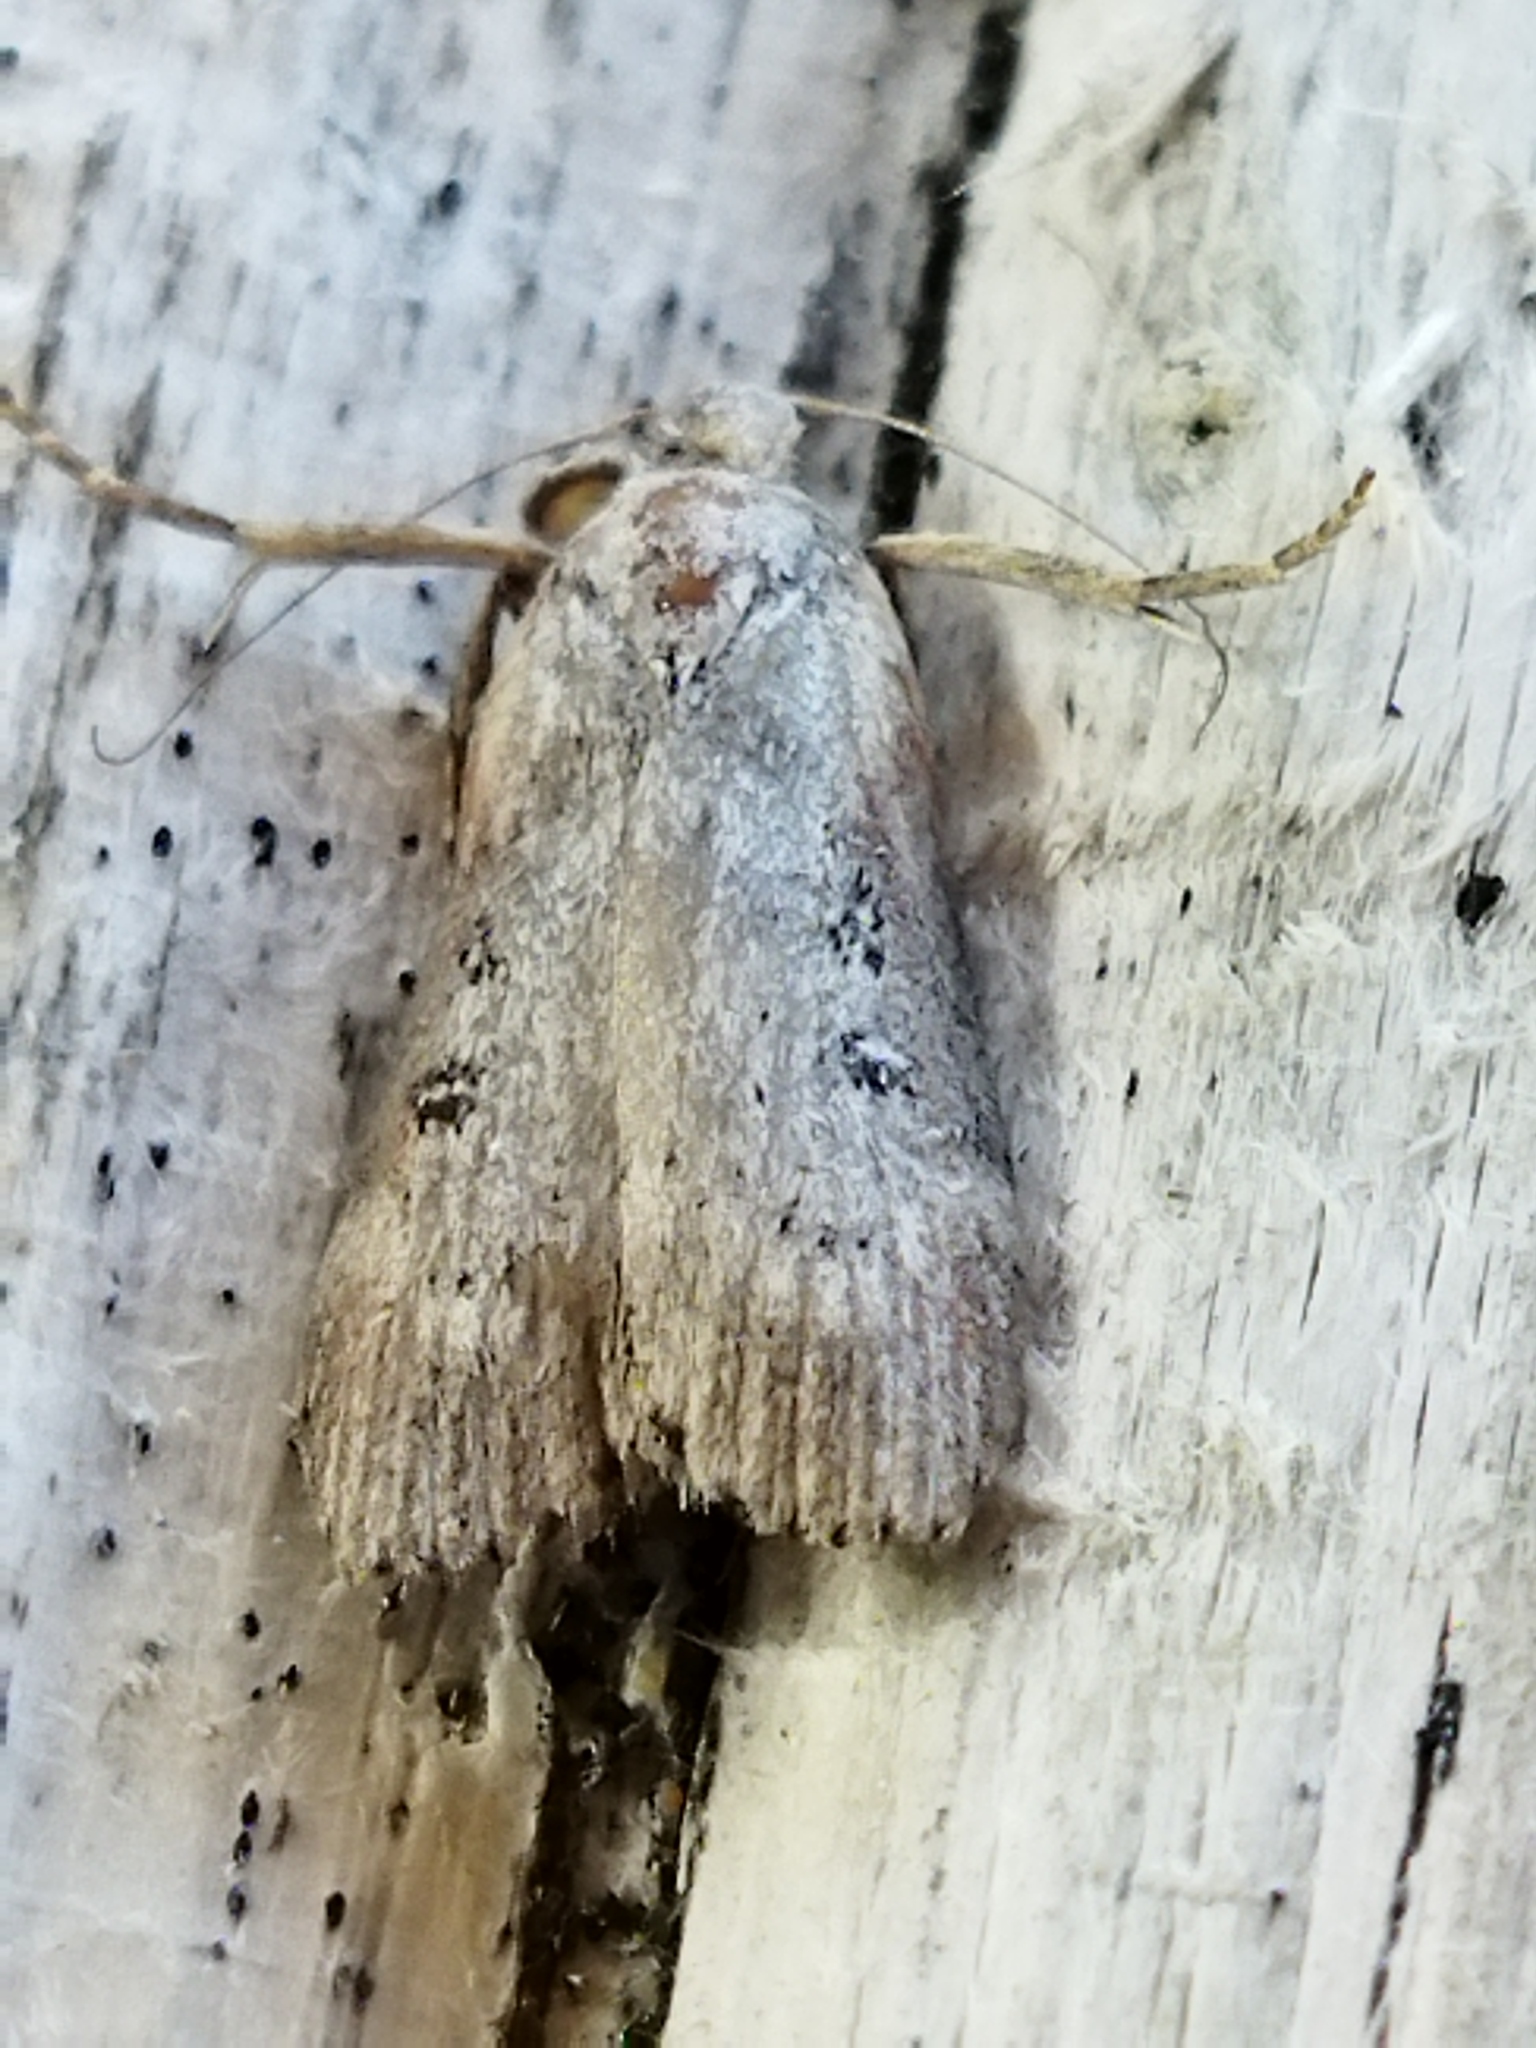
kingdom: Animalia
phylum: Arthropoda
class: Insecta
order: Lepidoptera
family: Pyralidae
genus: Lamoria
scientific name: Lamoria anella
